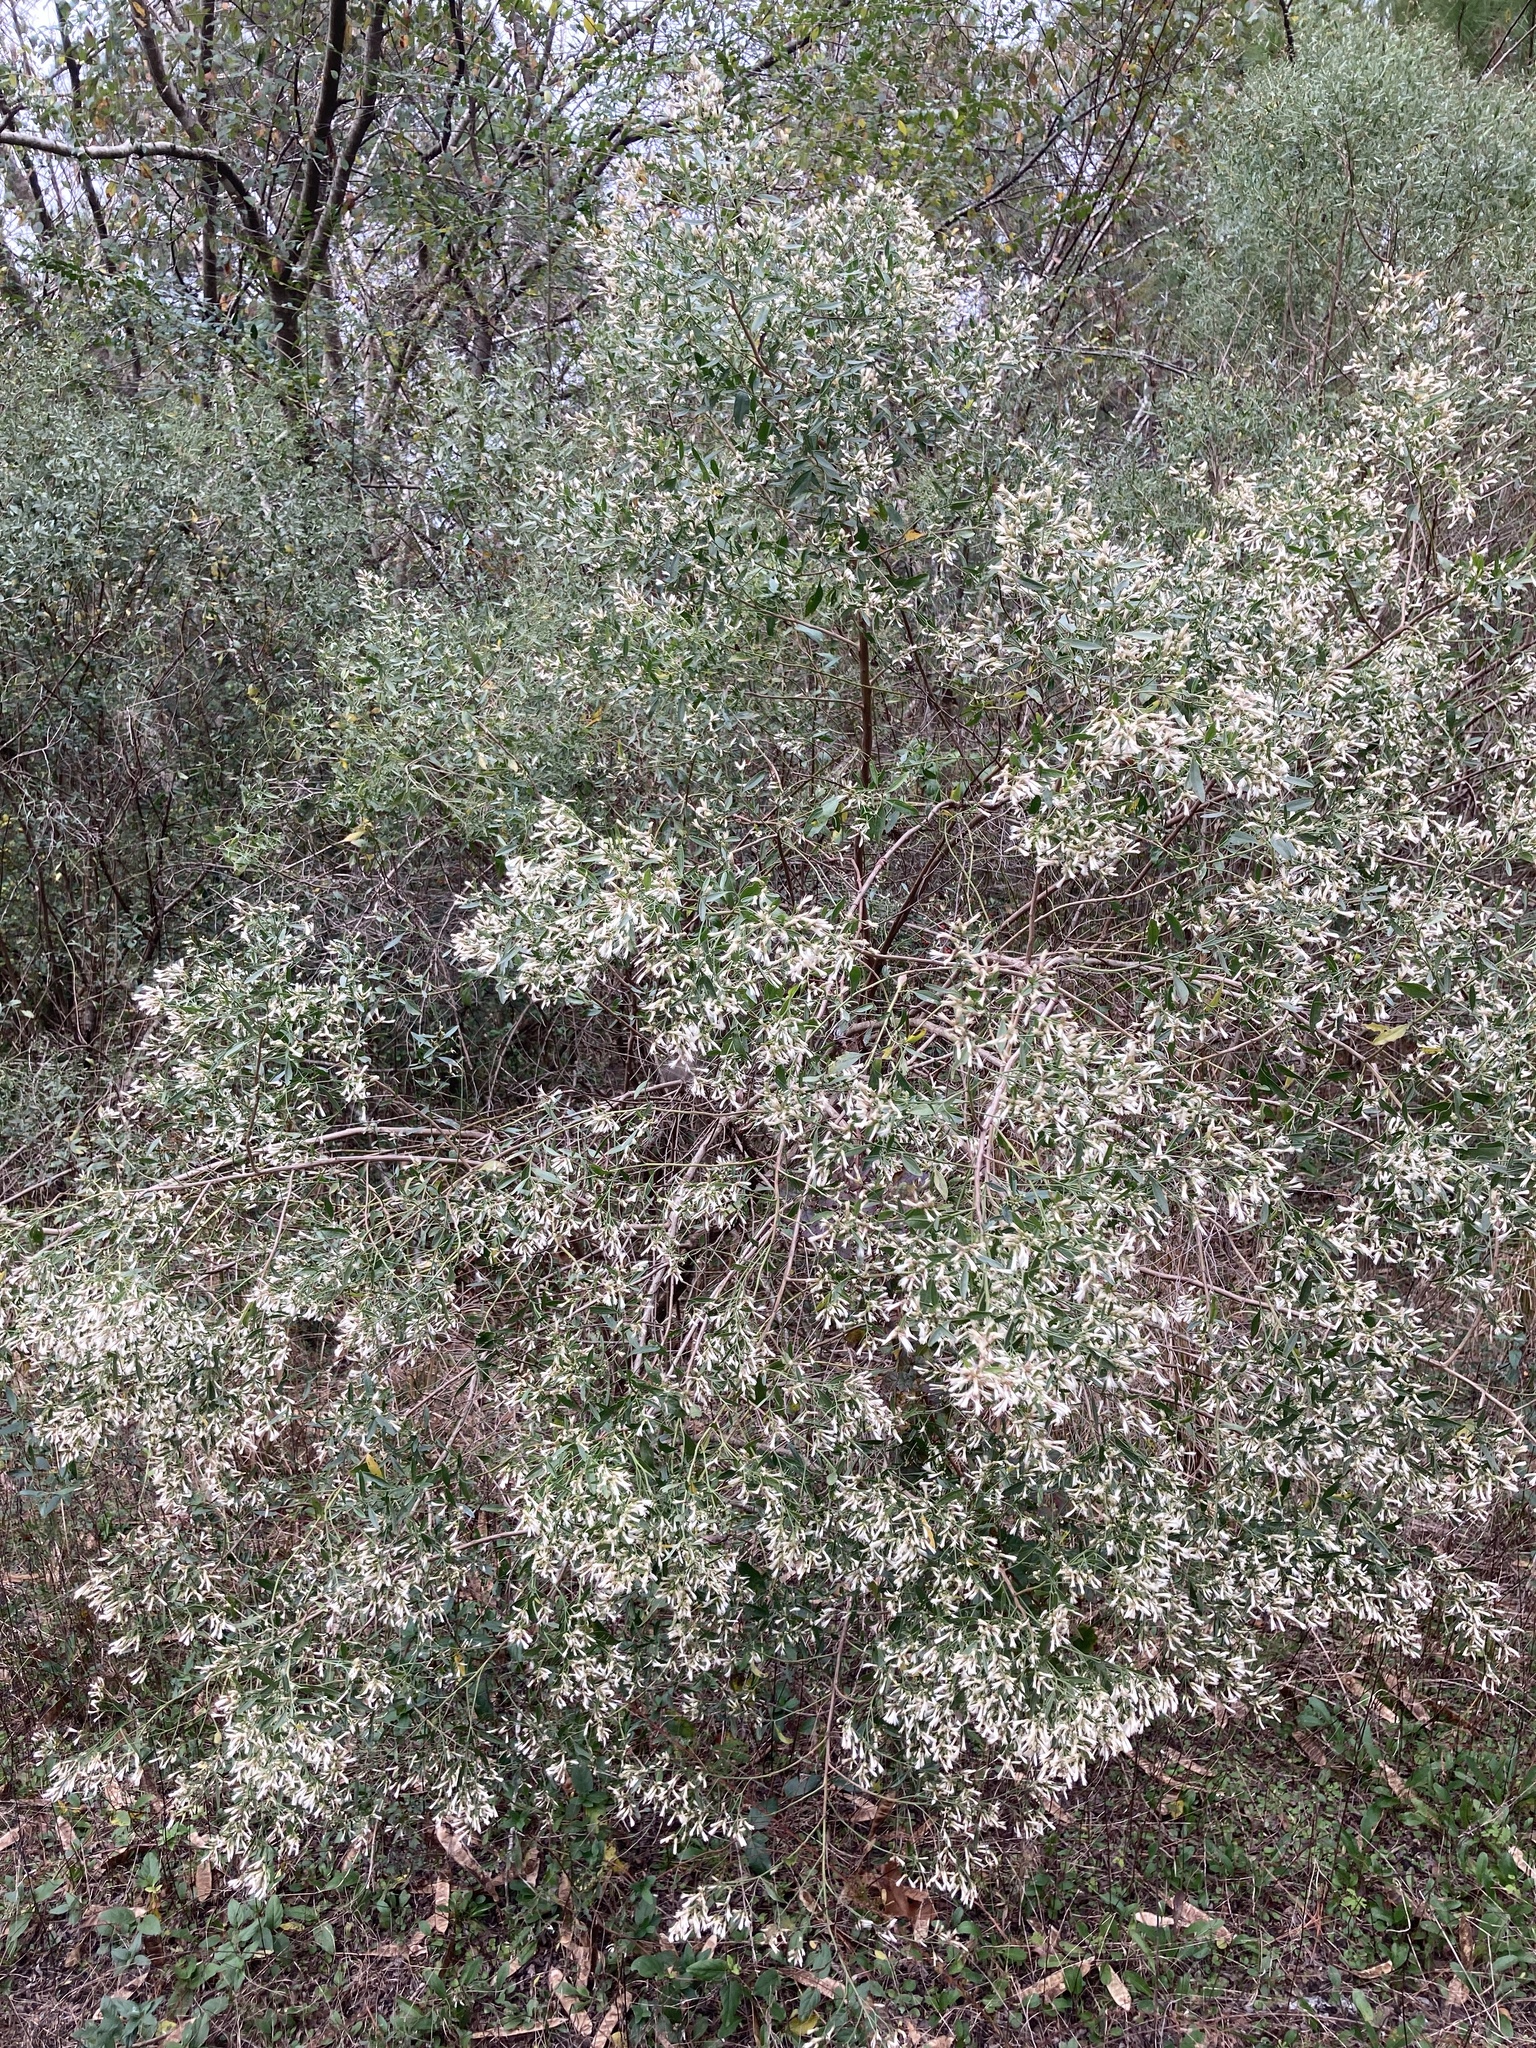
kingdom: Plantae
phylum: Tracheophyta
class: Magnoliopsida
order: Asterales
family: Asteraceae
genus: Baccharis
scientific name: Baccharis halimifolia
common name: Eastern baccharis
